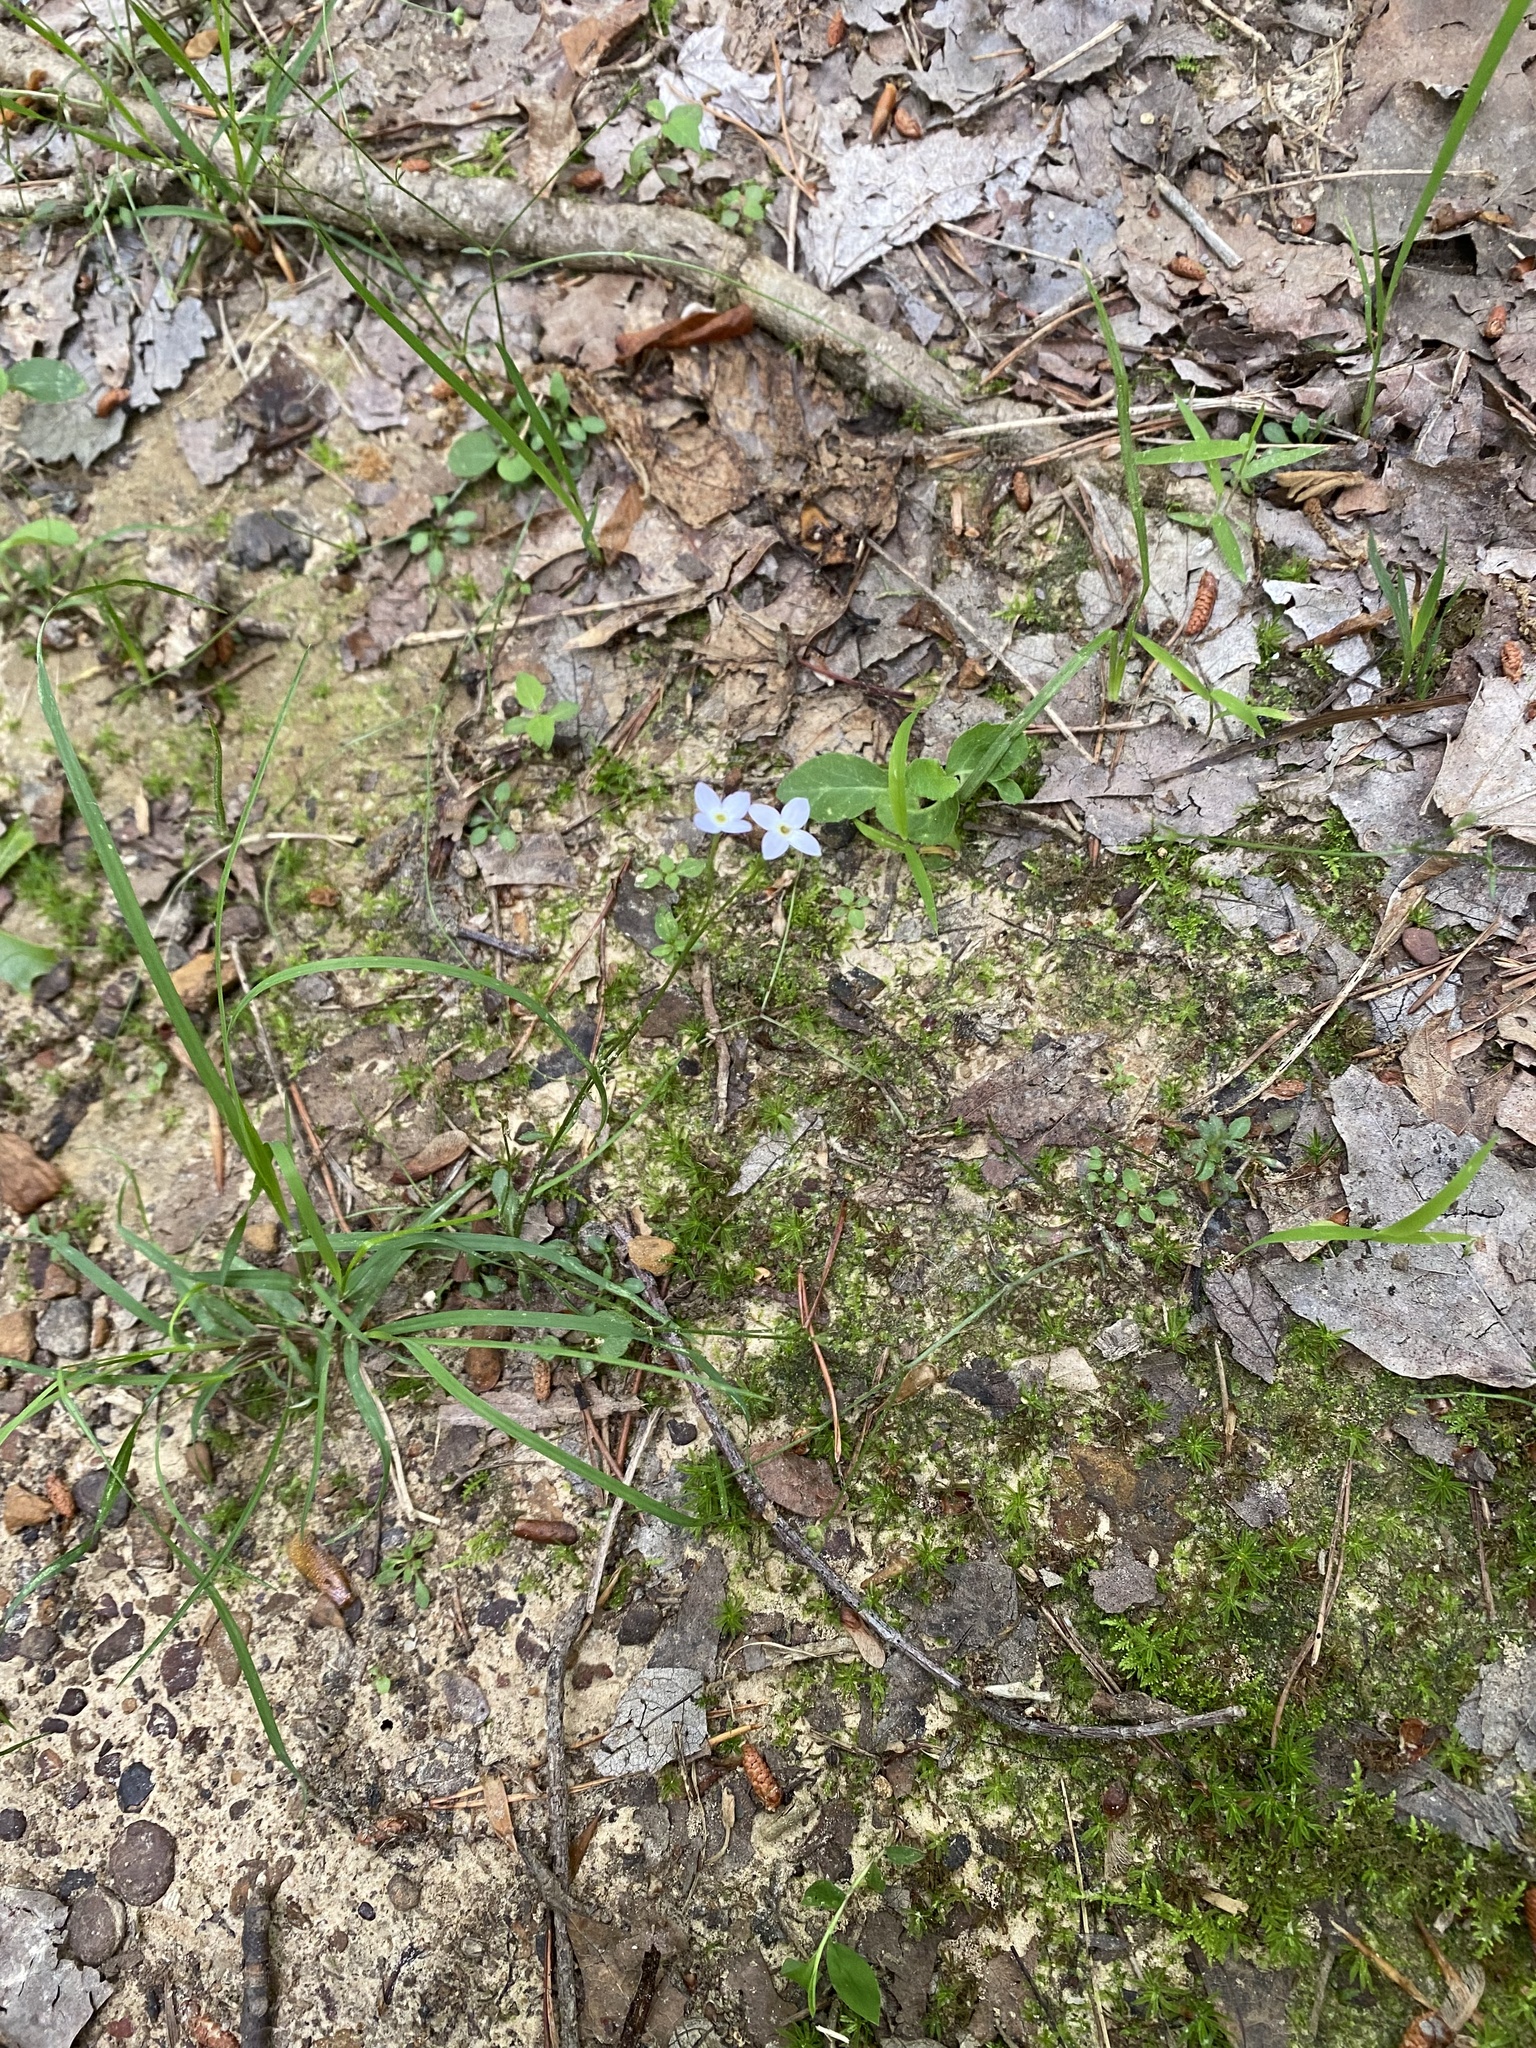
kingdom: Plantae
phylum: Tracheophyta
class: Magnoliopsida
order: Gentianales
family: Rubiaceae
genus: Houstonia
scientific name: Houstonia caerulea
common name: Bluets
